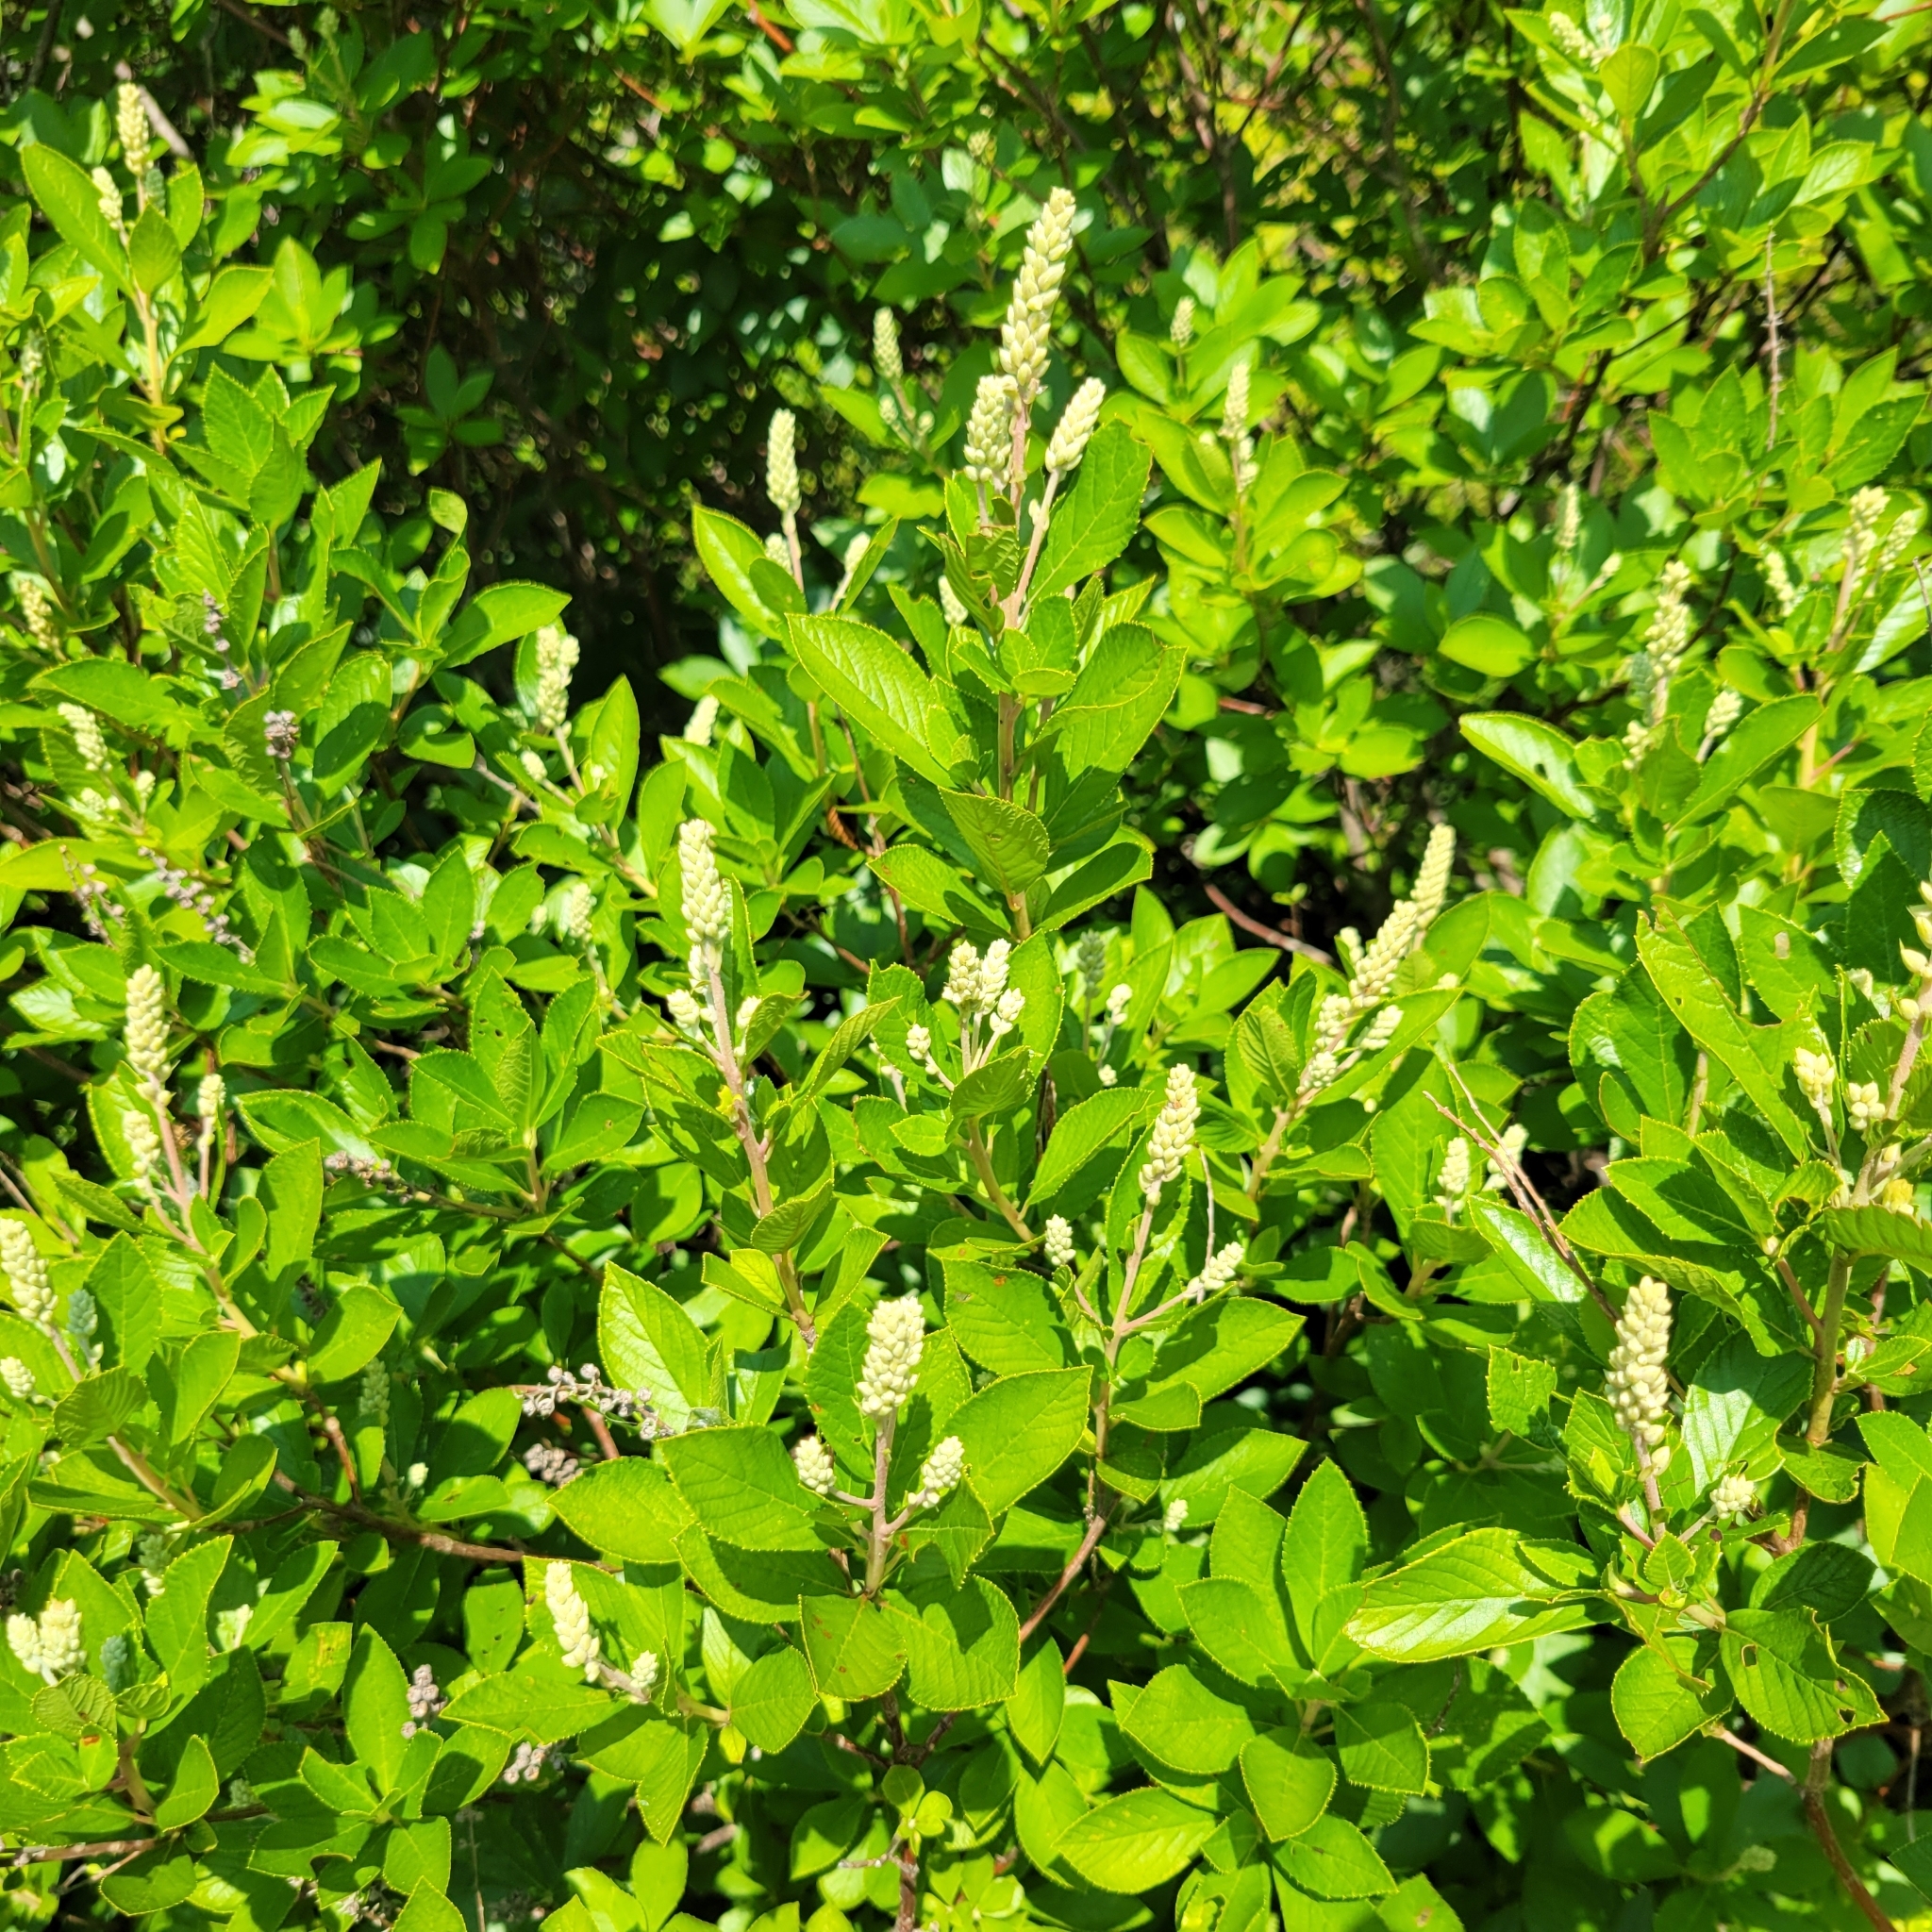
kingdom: Plantae
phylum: Tracheophyta
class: Magnoliopsida
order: Ericales
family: Clethraceae
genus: Clethra
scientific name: Clethra alnifolia
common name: Sweet pepperbush
